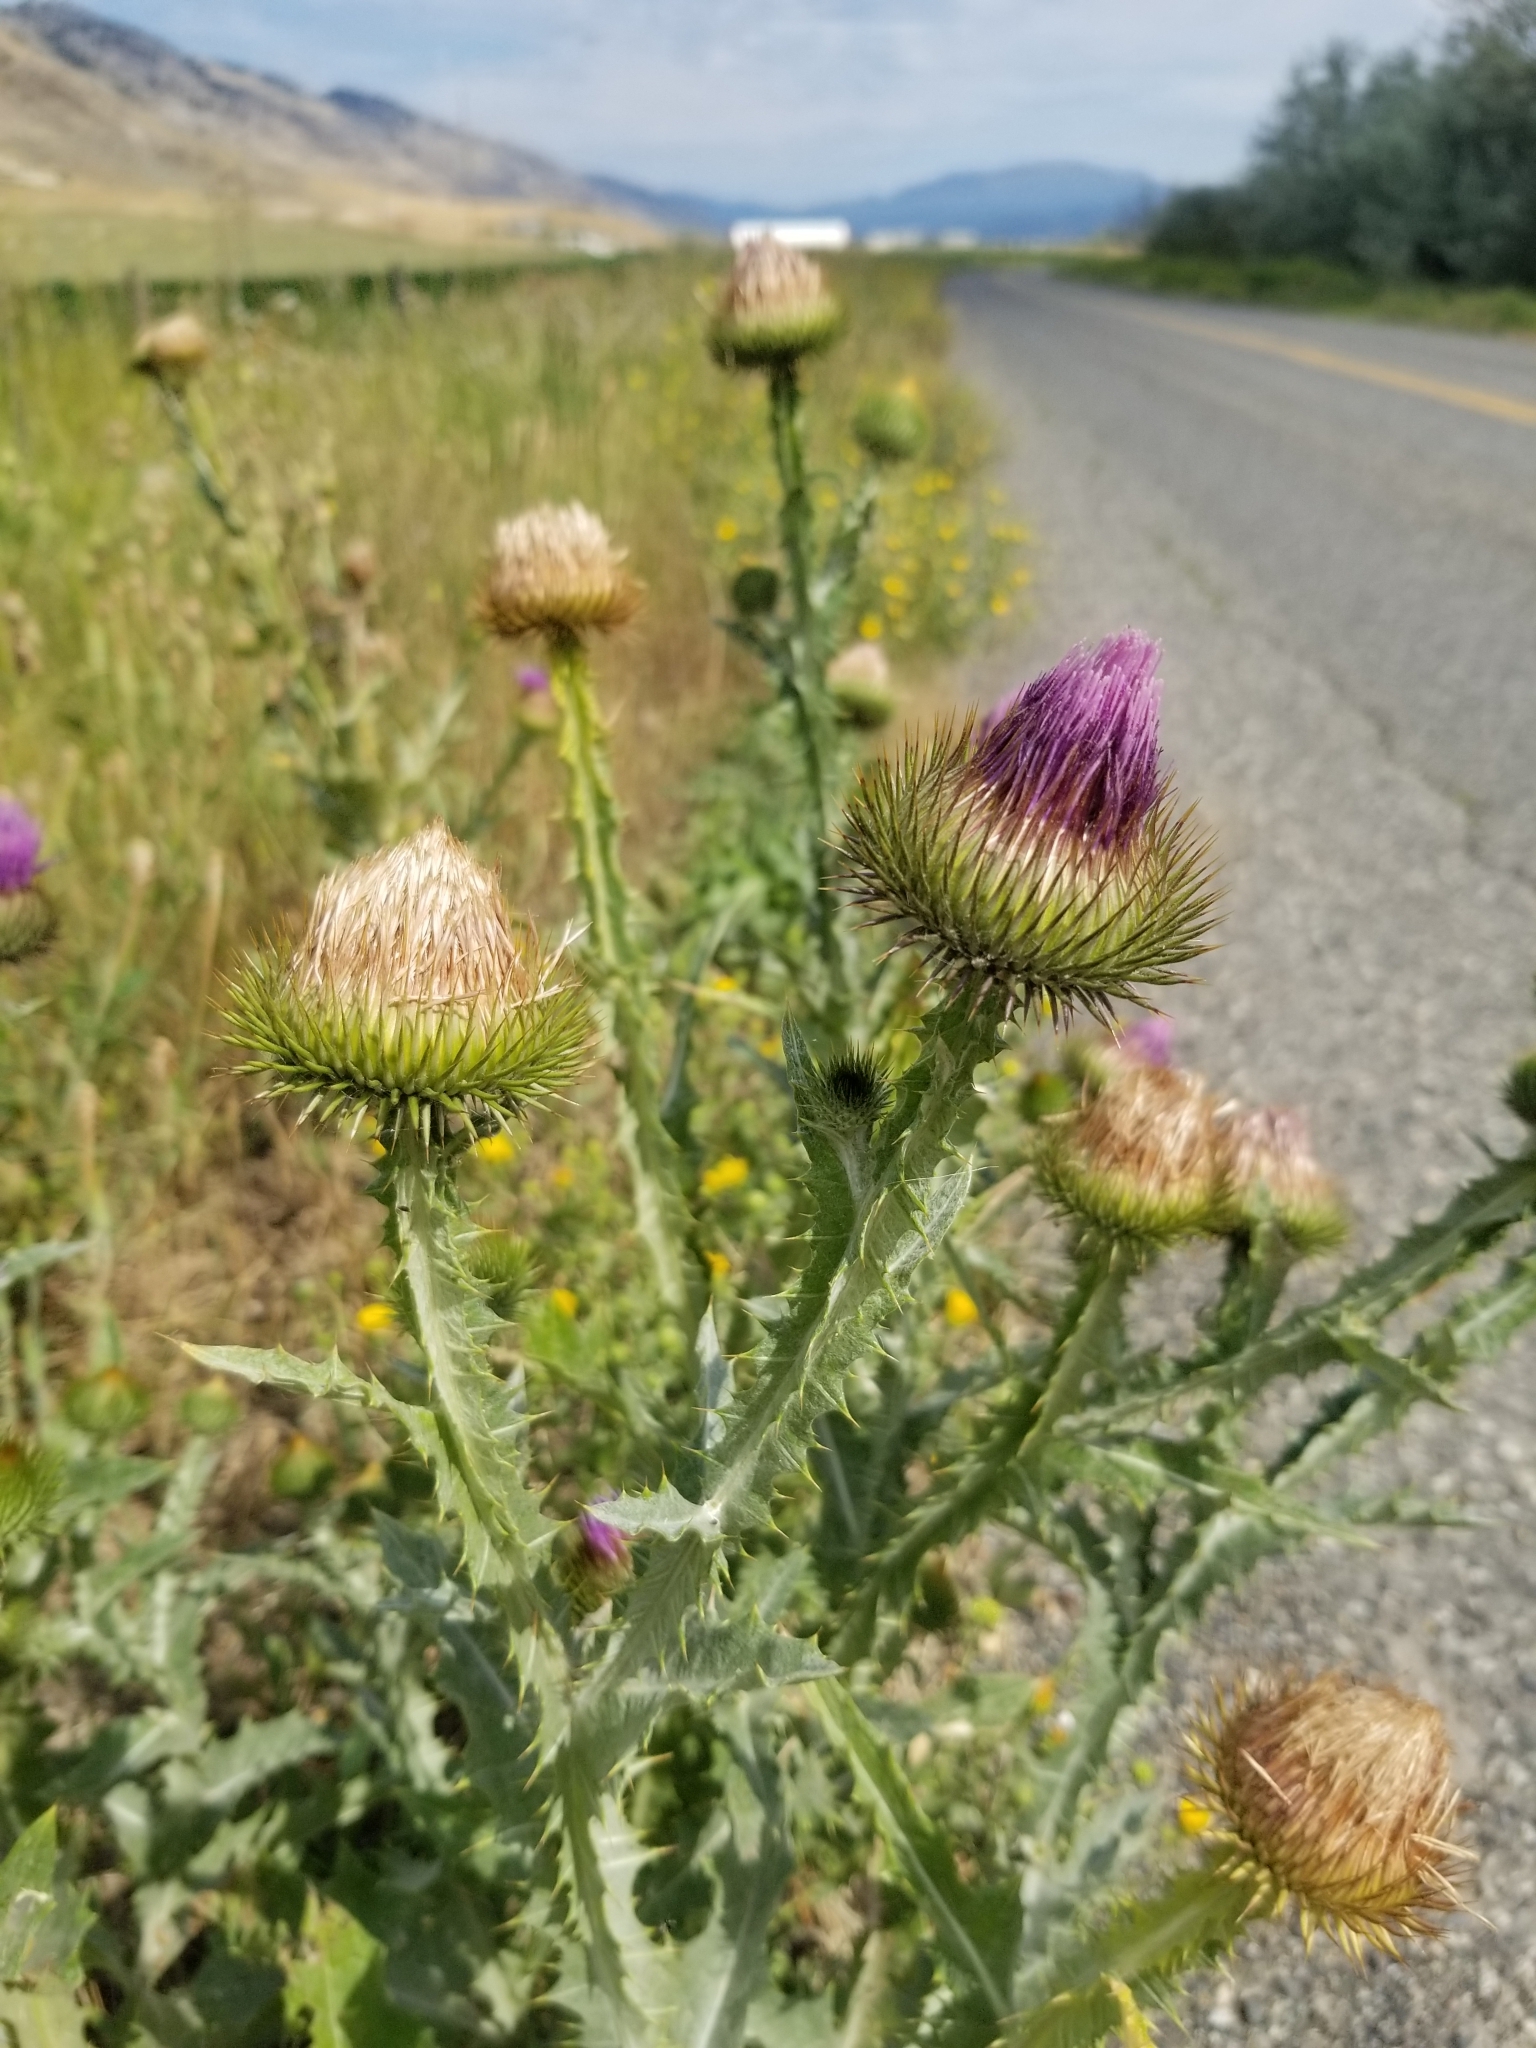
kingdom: Plantae
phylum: Tracheophyta
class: Magnoliopsida
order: Asterales
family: Asteraceae
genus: Onopordum
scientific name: Onopordum acanthium
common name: Scotch thistle
